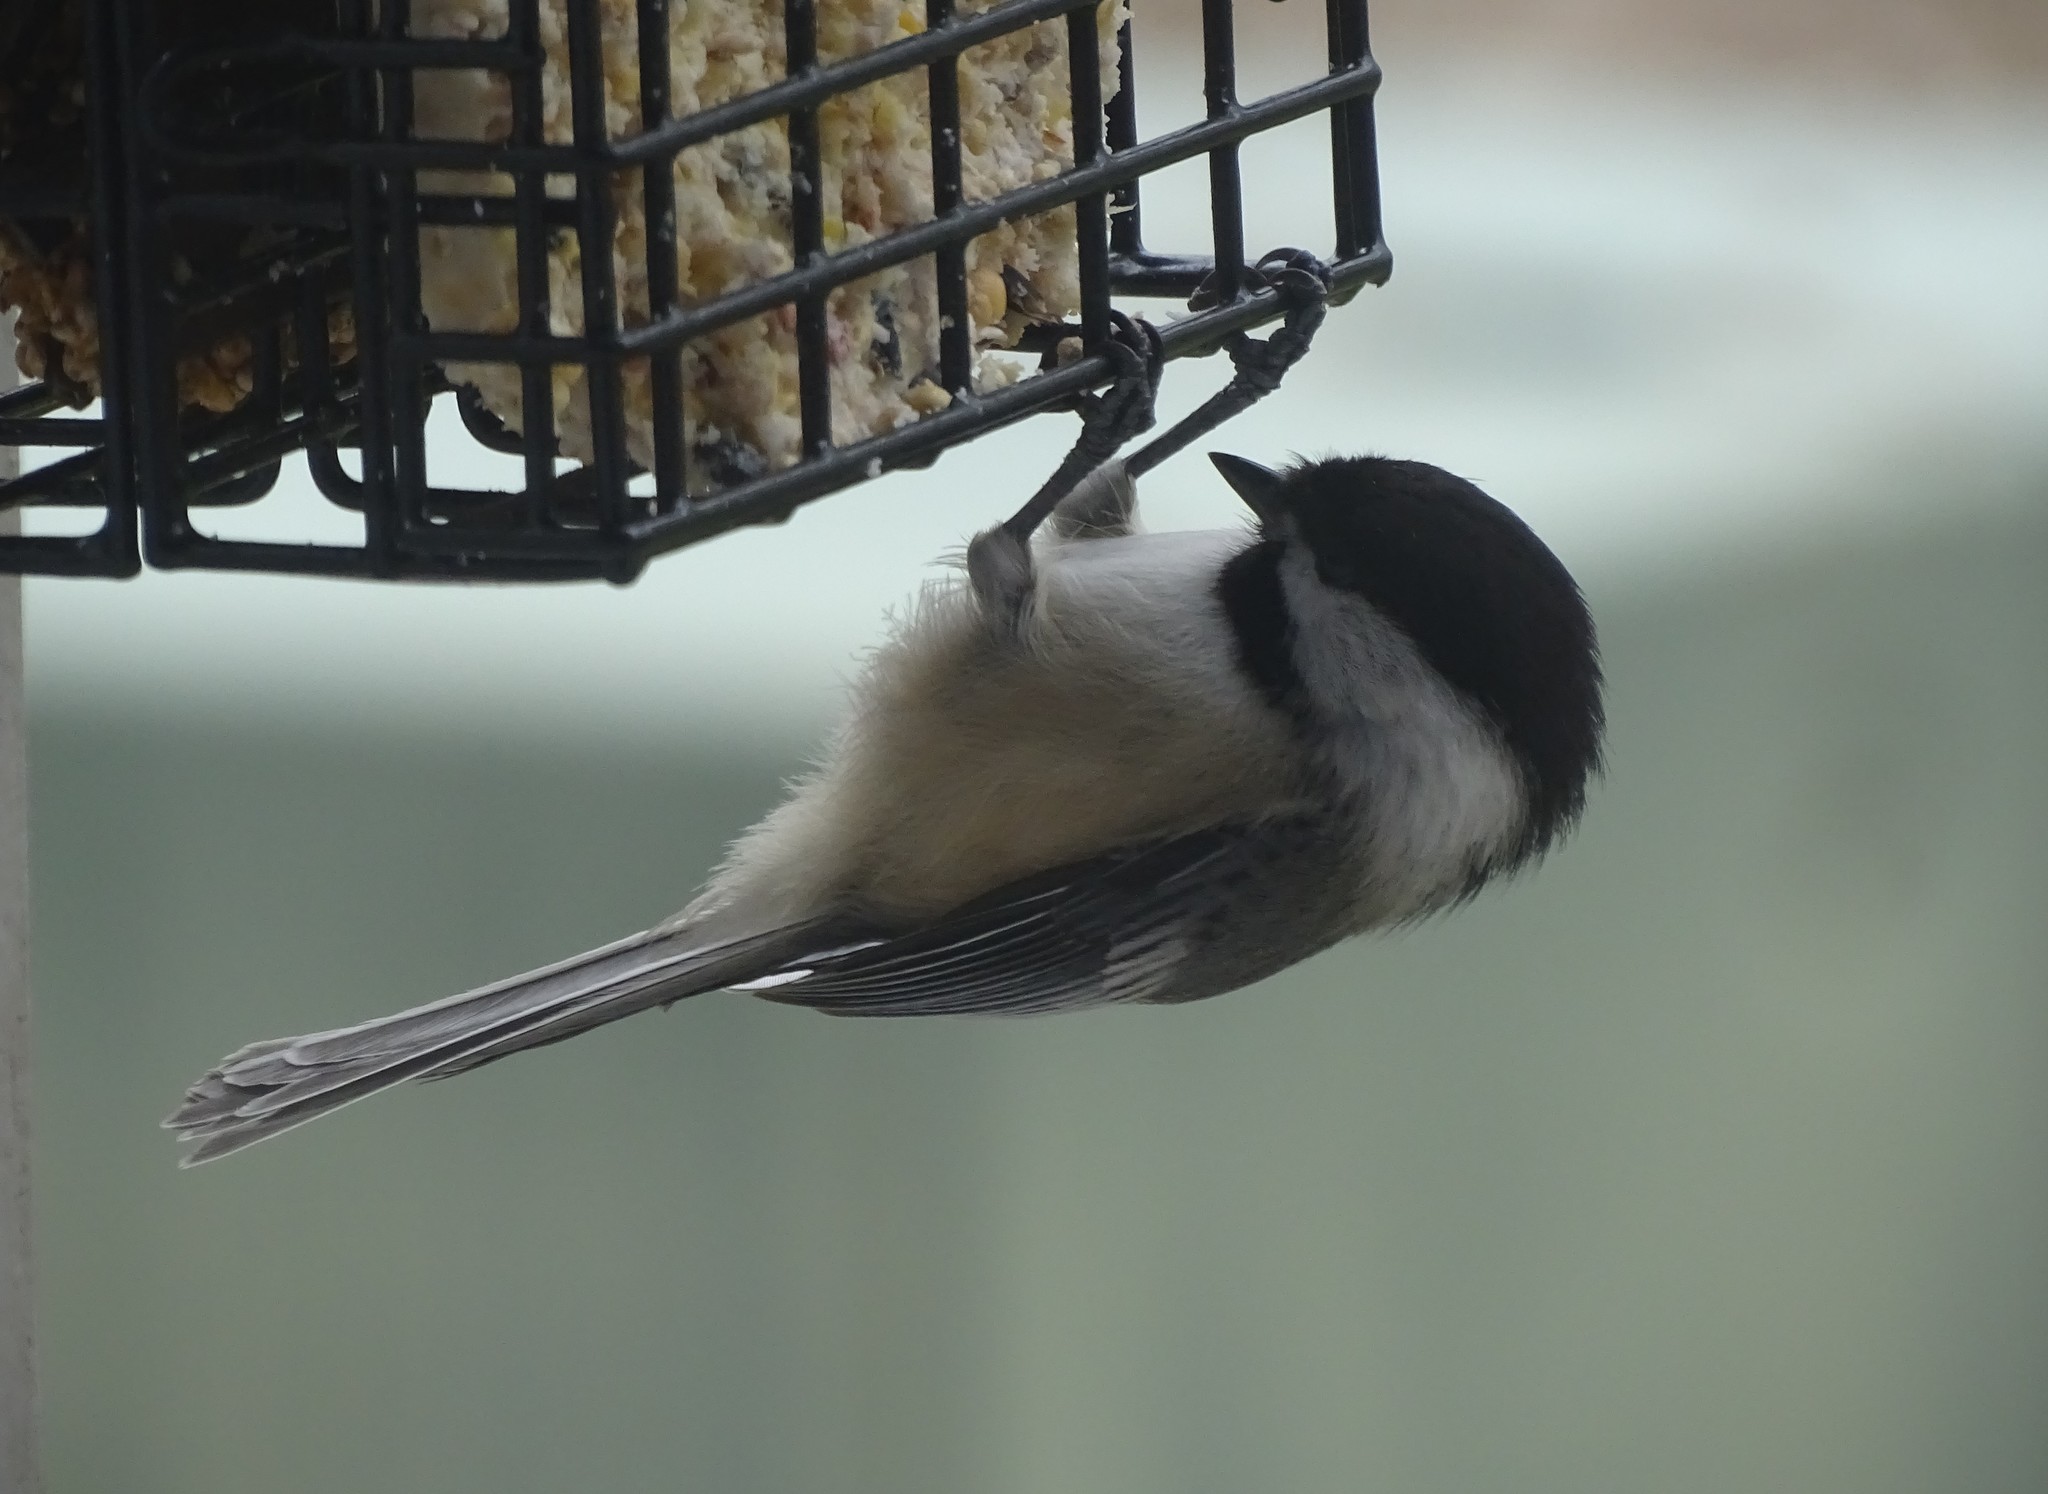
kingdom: Animalia
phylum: Chordata
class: Aves
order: Passeriformes
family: Paridae
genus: Poecile
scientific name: Poecile atricapillus
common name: Black-capped chickadee
